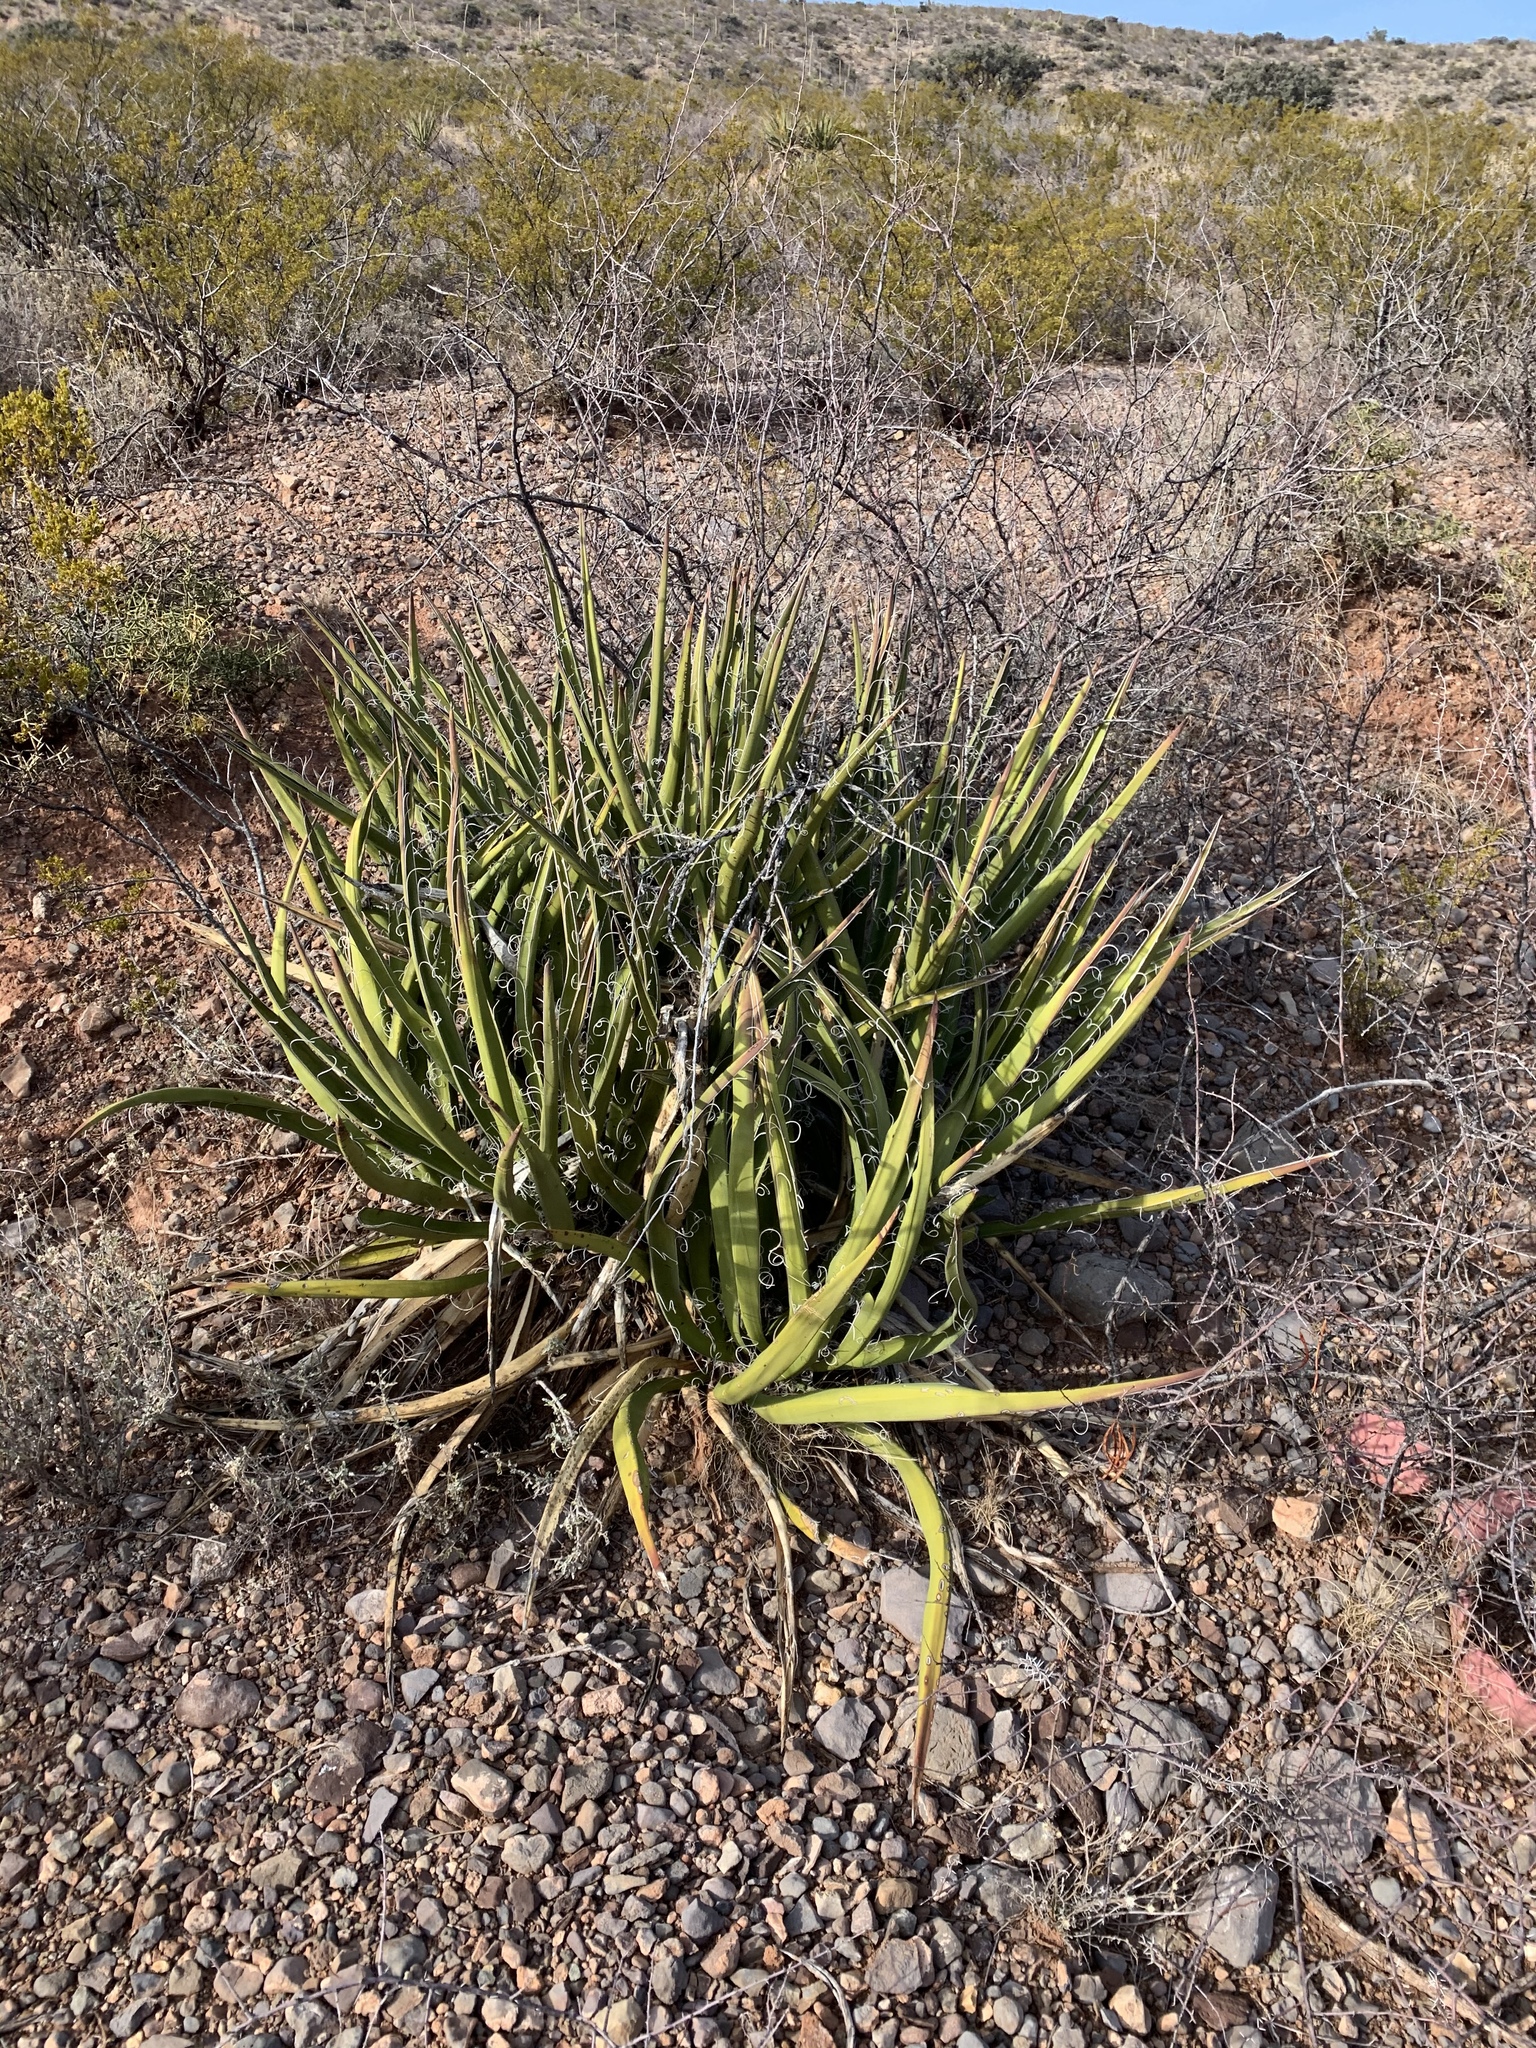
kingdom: Plantae
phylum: Tracheophyta
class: Liliopsida
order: Asparagales
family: Asparagaceae
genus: Yucca
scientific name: Yucca baccata
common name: Banana yucca
